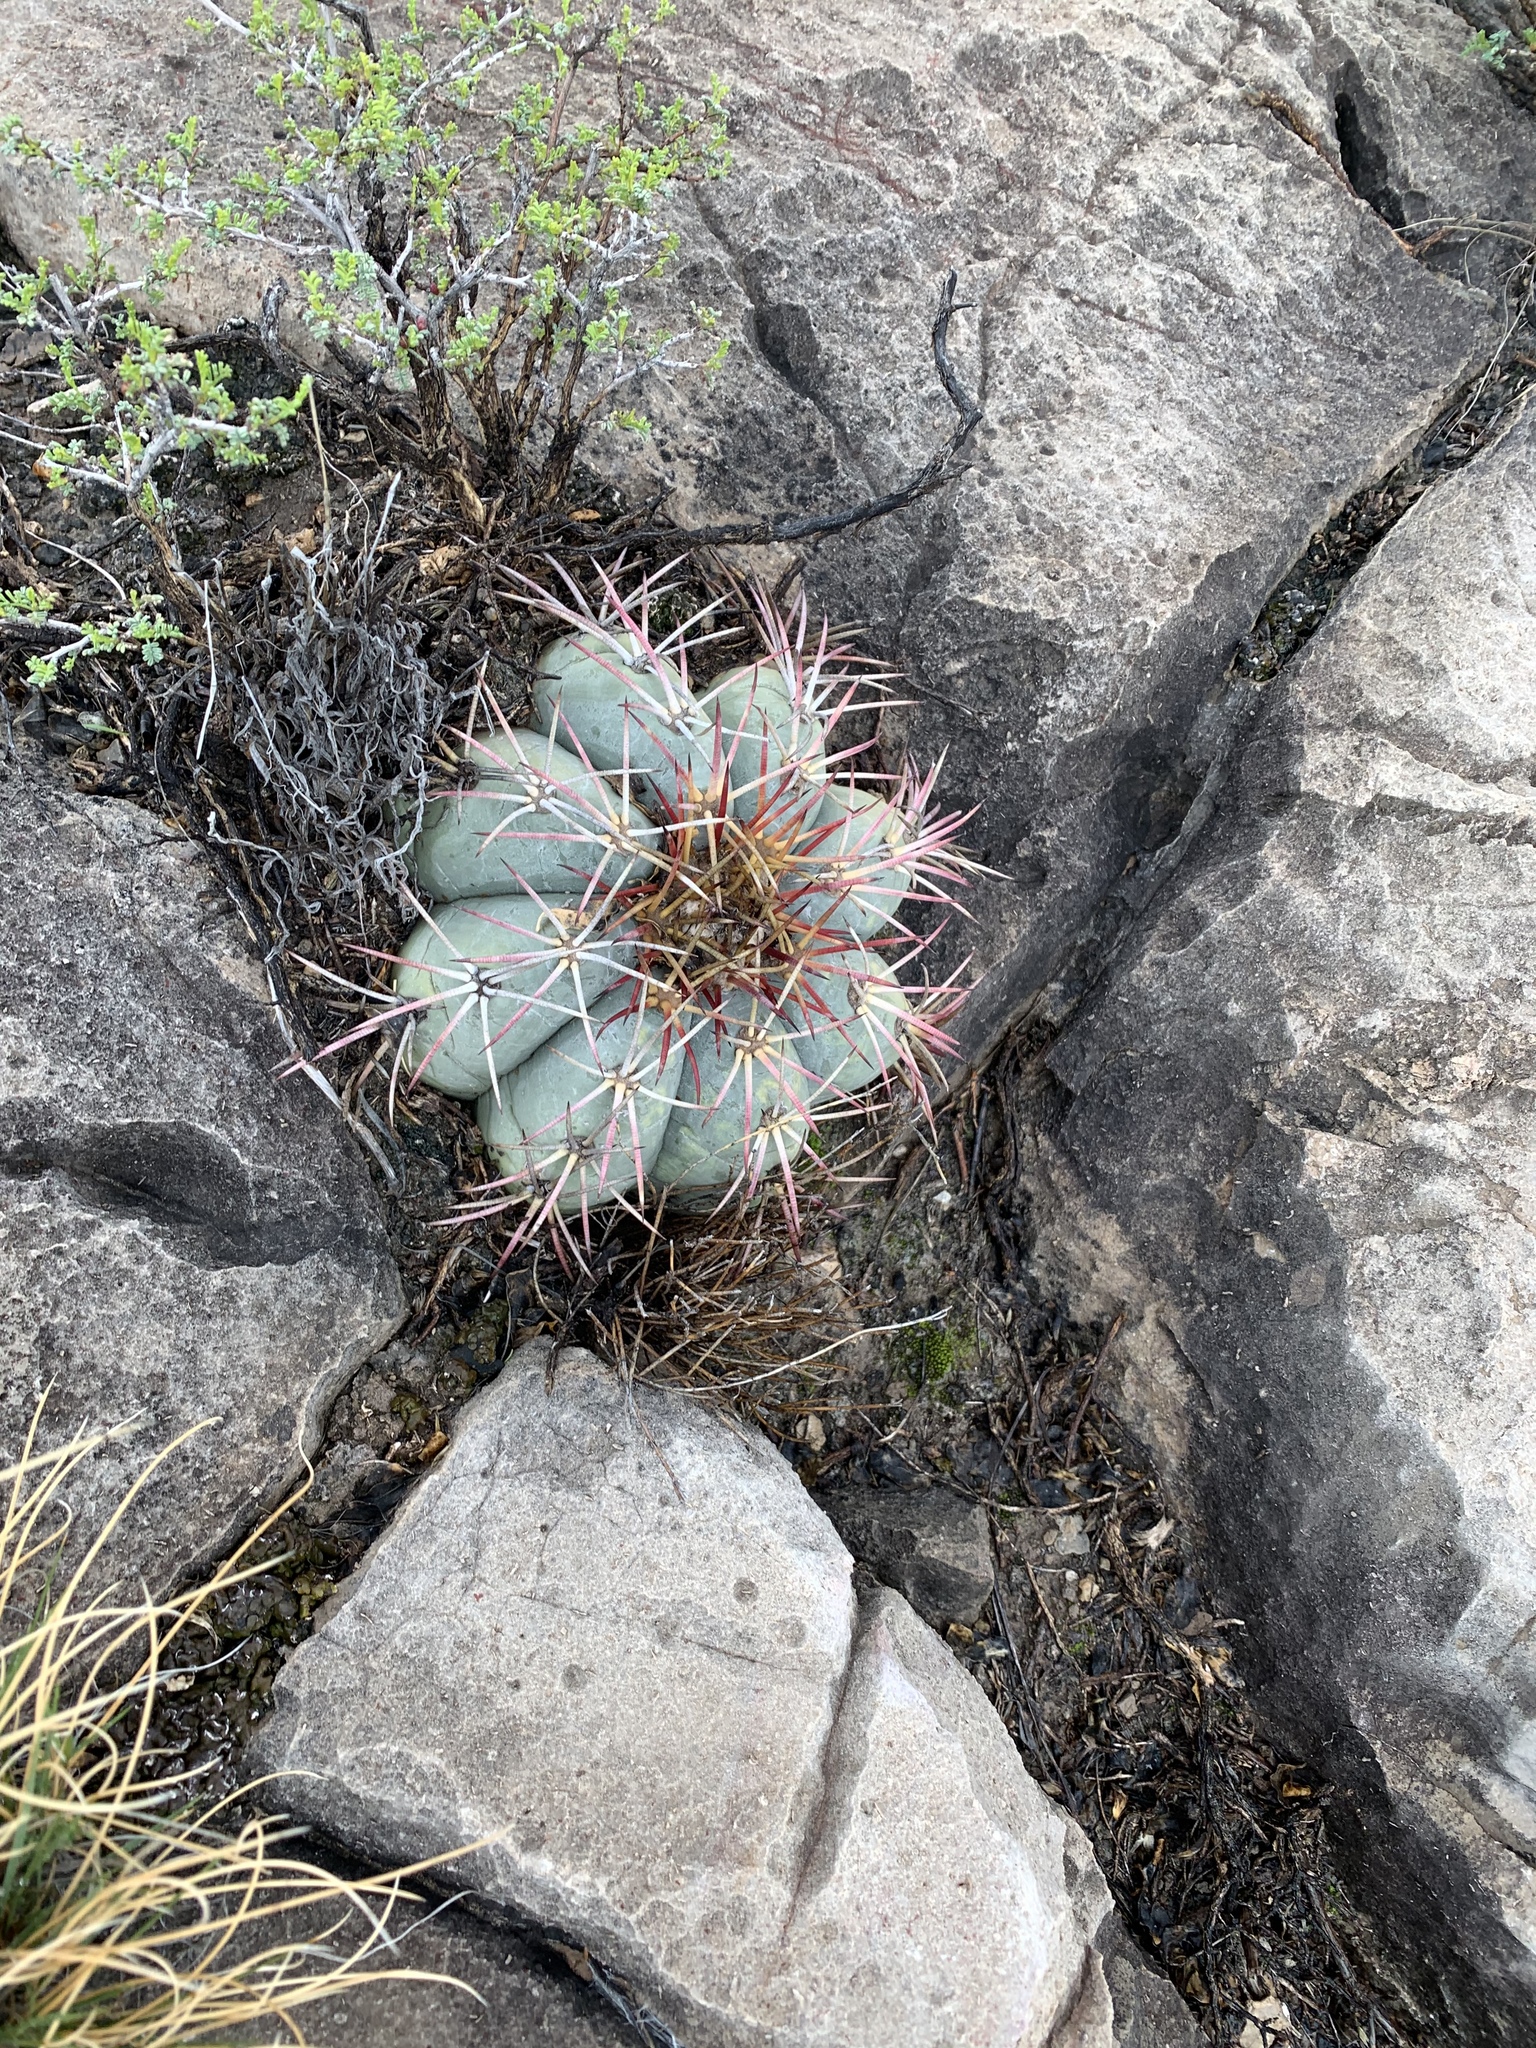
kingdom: Plantae
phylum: Tracheophyta
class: Magnoliopsida
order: Caryophyllales
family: Cactaceae
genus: Echinocactus
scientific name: Echinocactus horizonthalonius
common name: Devilshead
